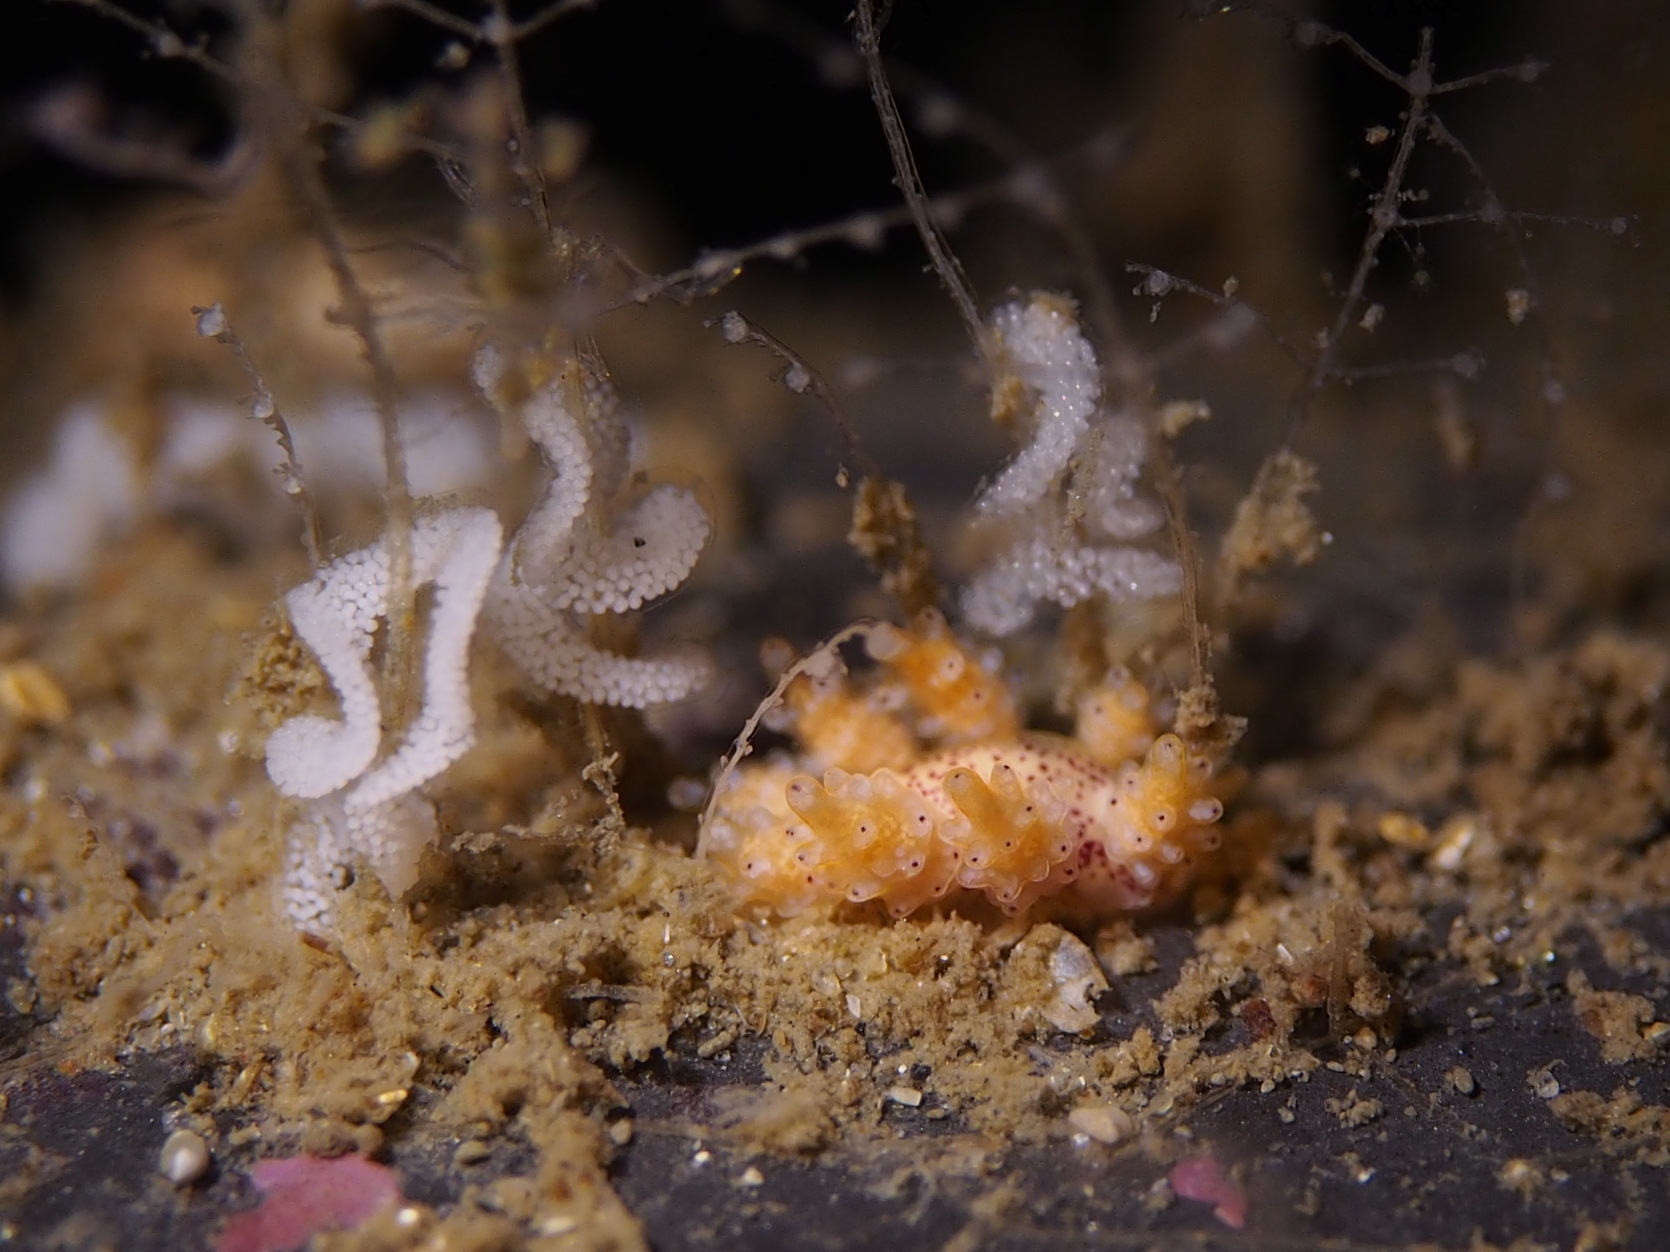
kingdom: Animalia
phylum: Mollusca
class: Gastropoda
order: Nudibranchia
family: Dotidae
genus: Doto
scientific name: Doto dunnei
